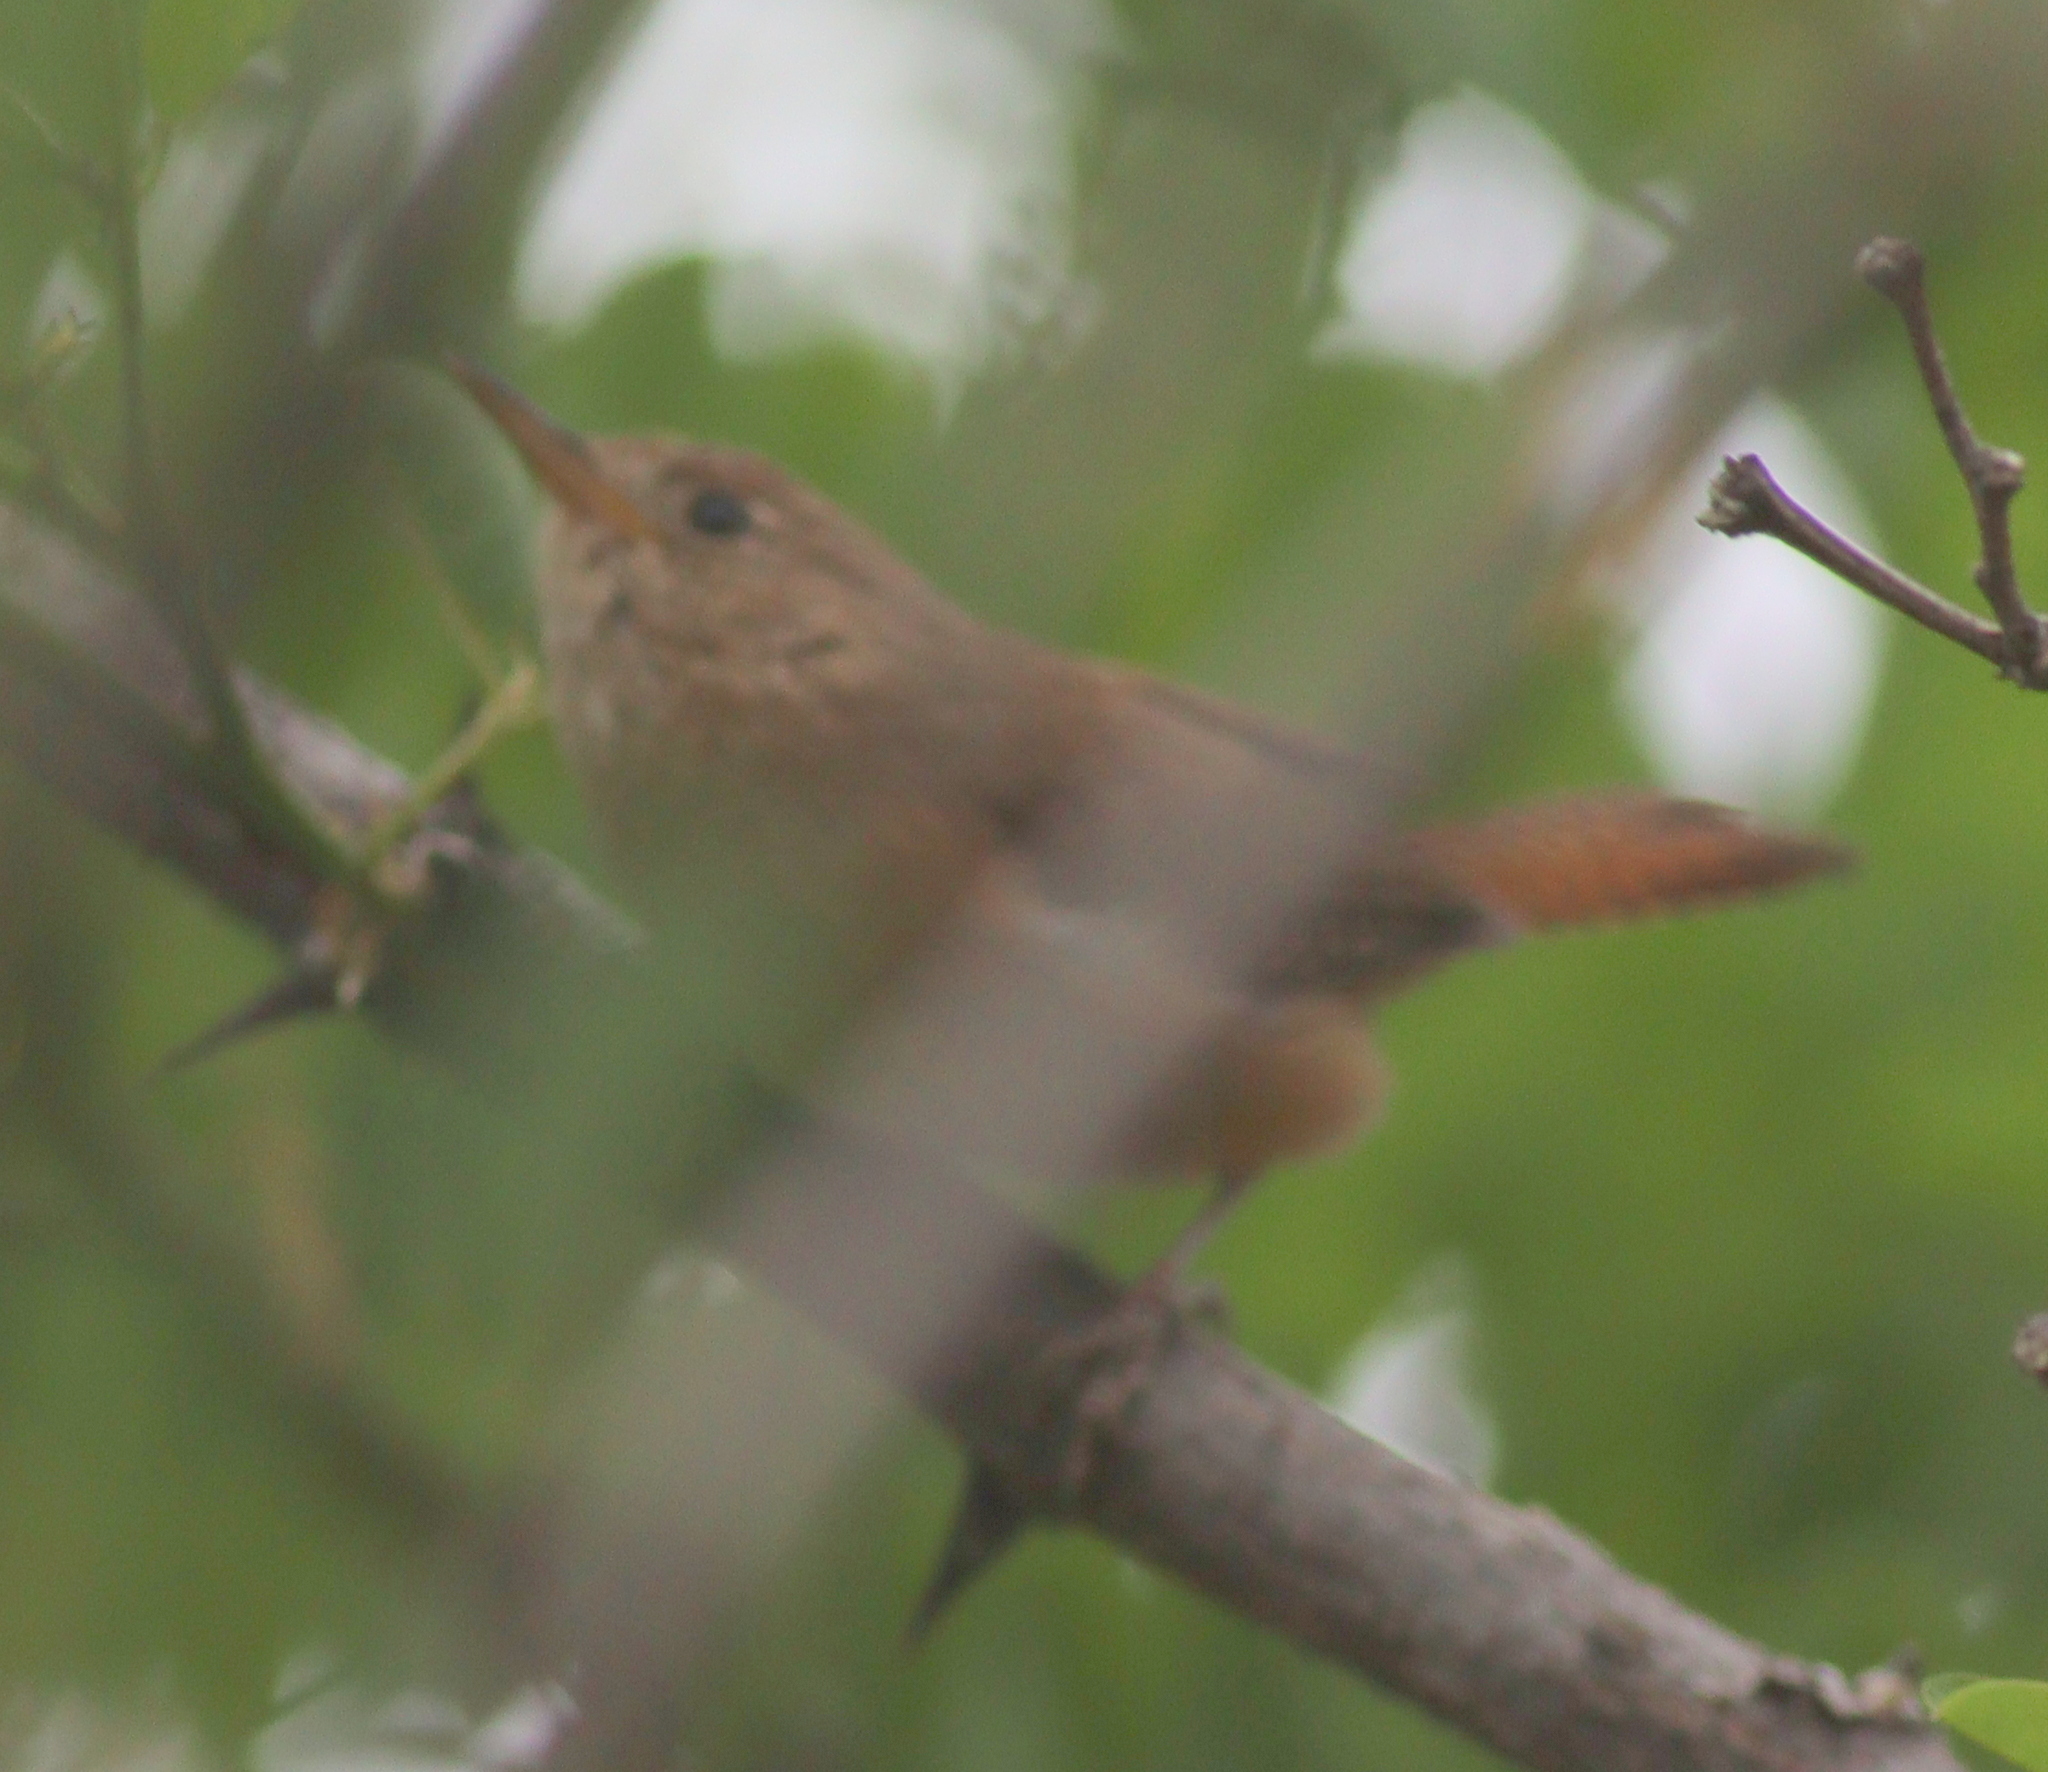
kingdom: Animalia
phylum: Chordata
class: Aves
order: Passeriformes
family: Troglodytidae
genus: Troglodytes
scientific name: Troglodytes aedon
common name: House wren
